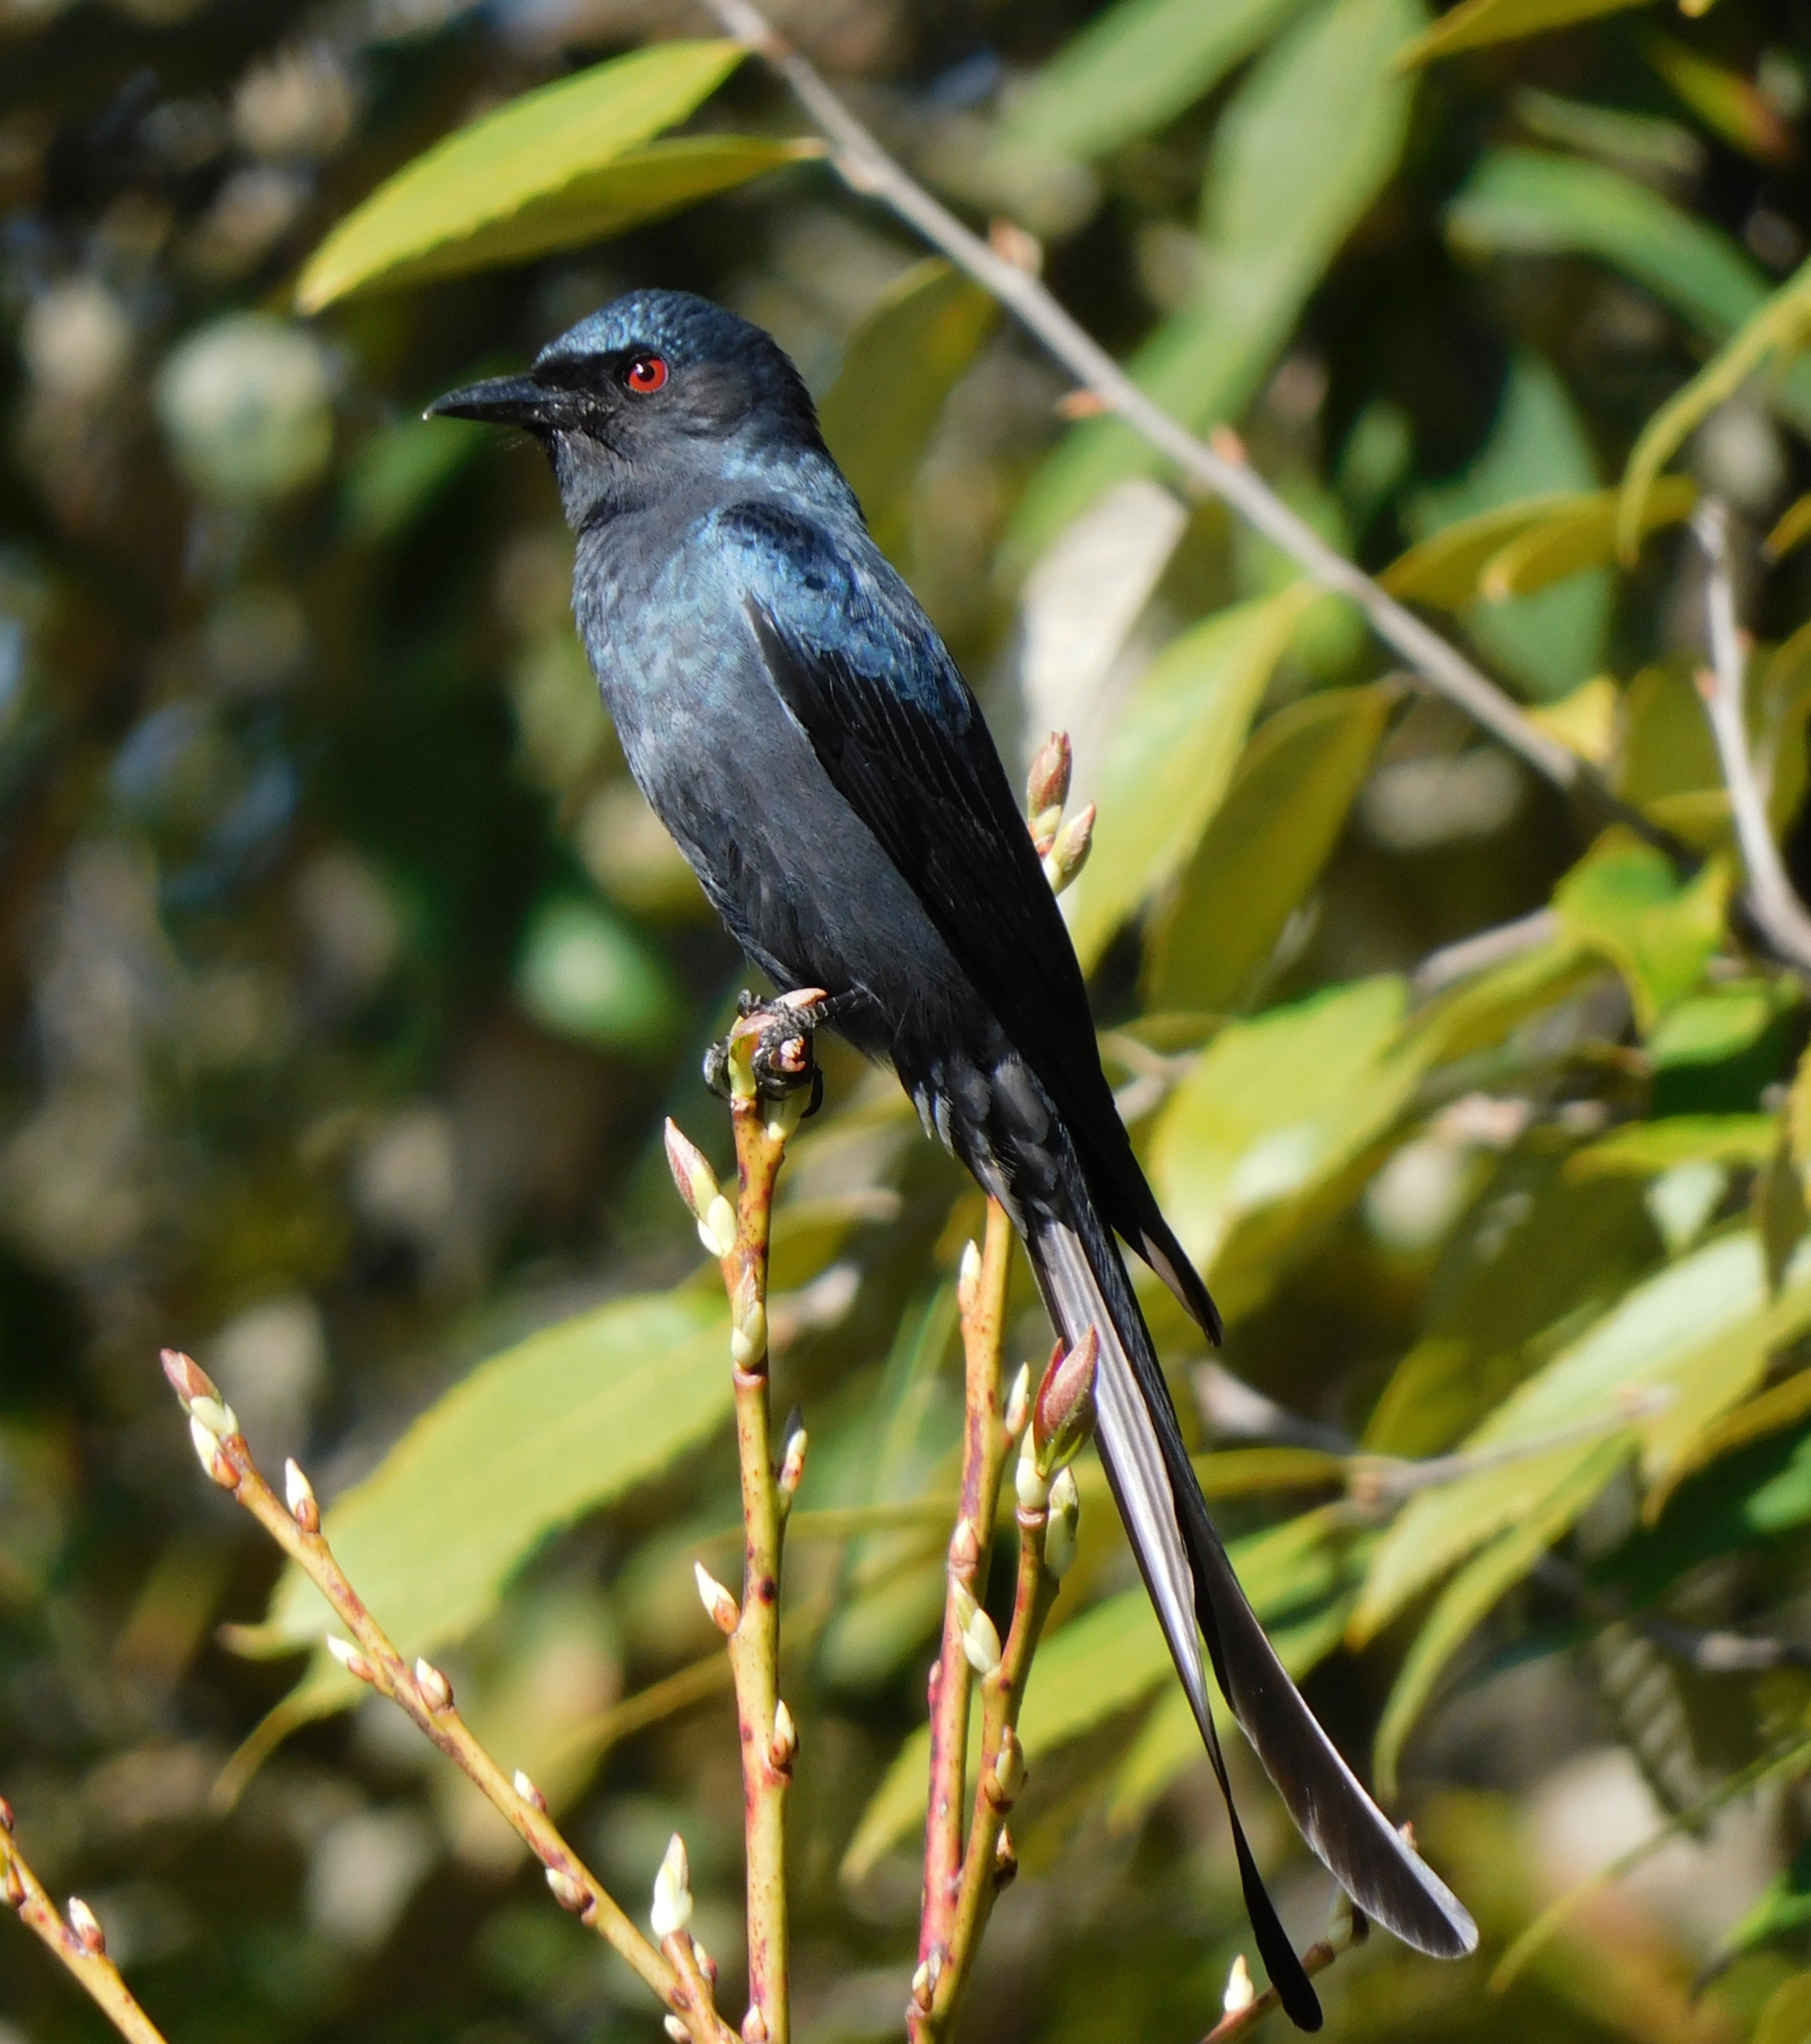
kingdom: Animalia
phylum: Chordata
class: Aves
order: Passeriformes
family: Dicruridae
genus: Dicrurus
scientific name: Dicrurus leucophaeus
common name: Ashy drongo
